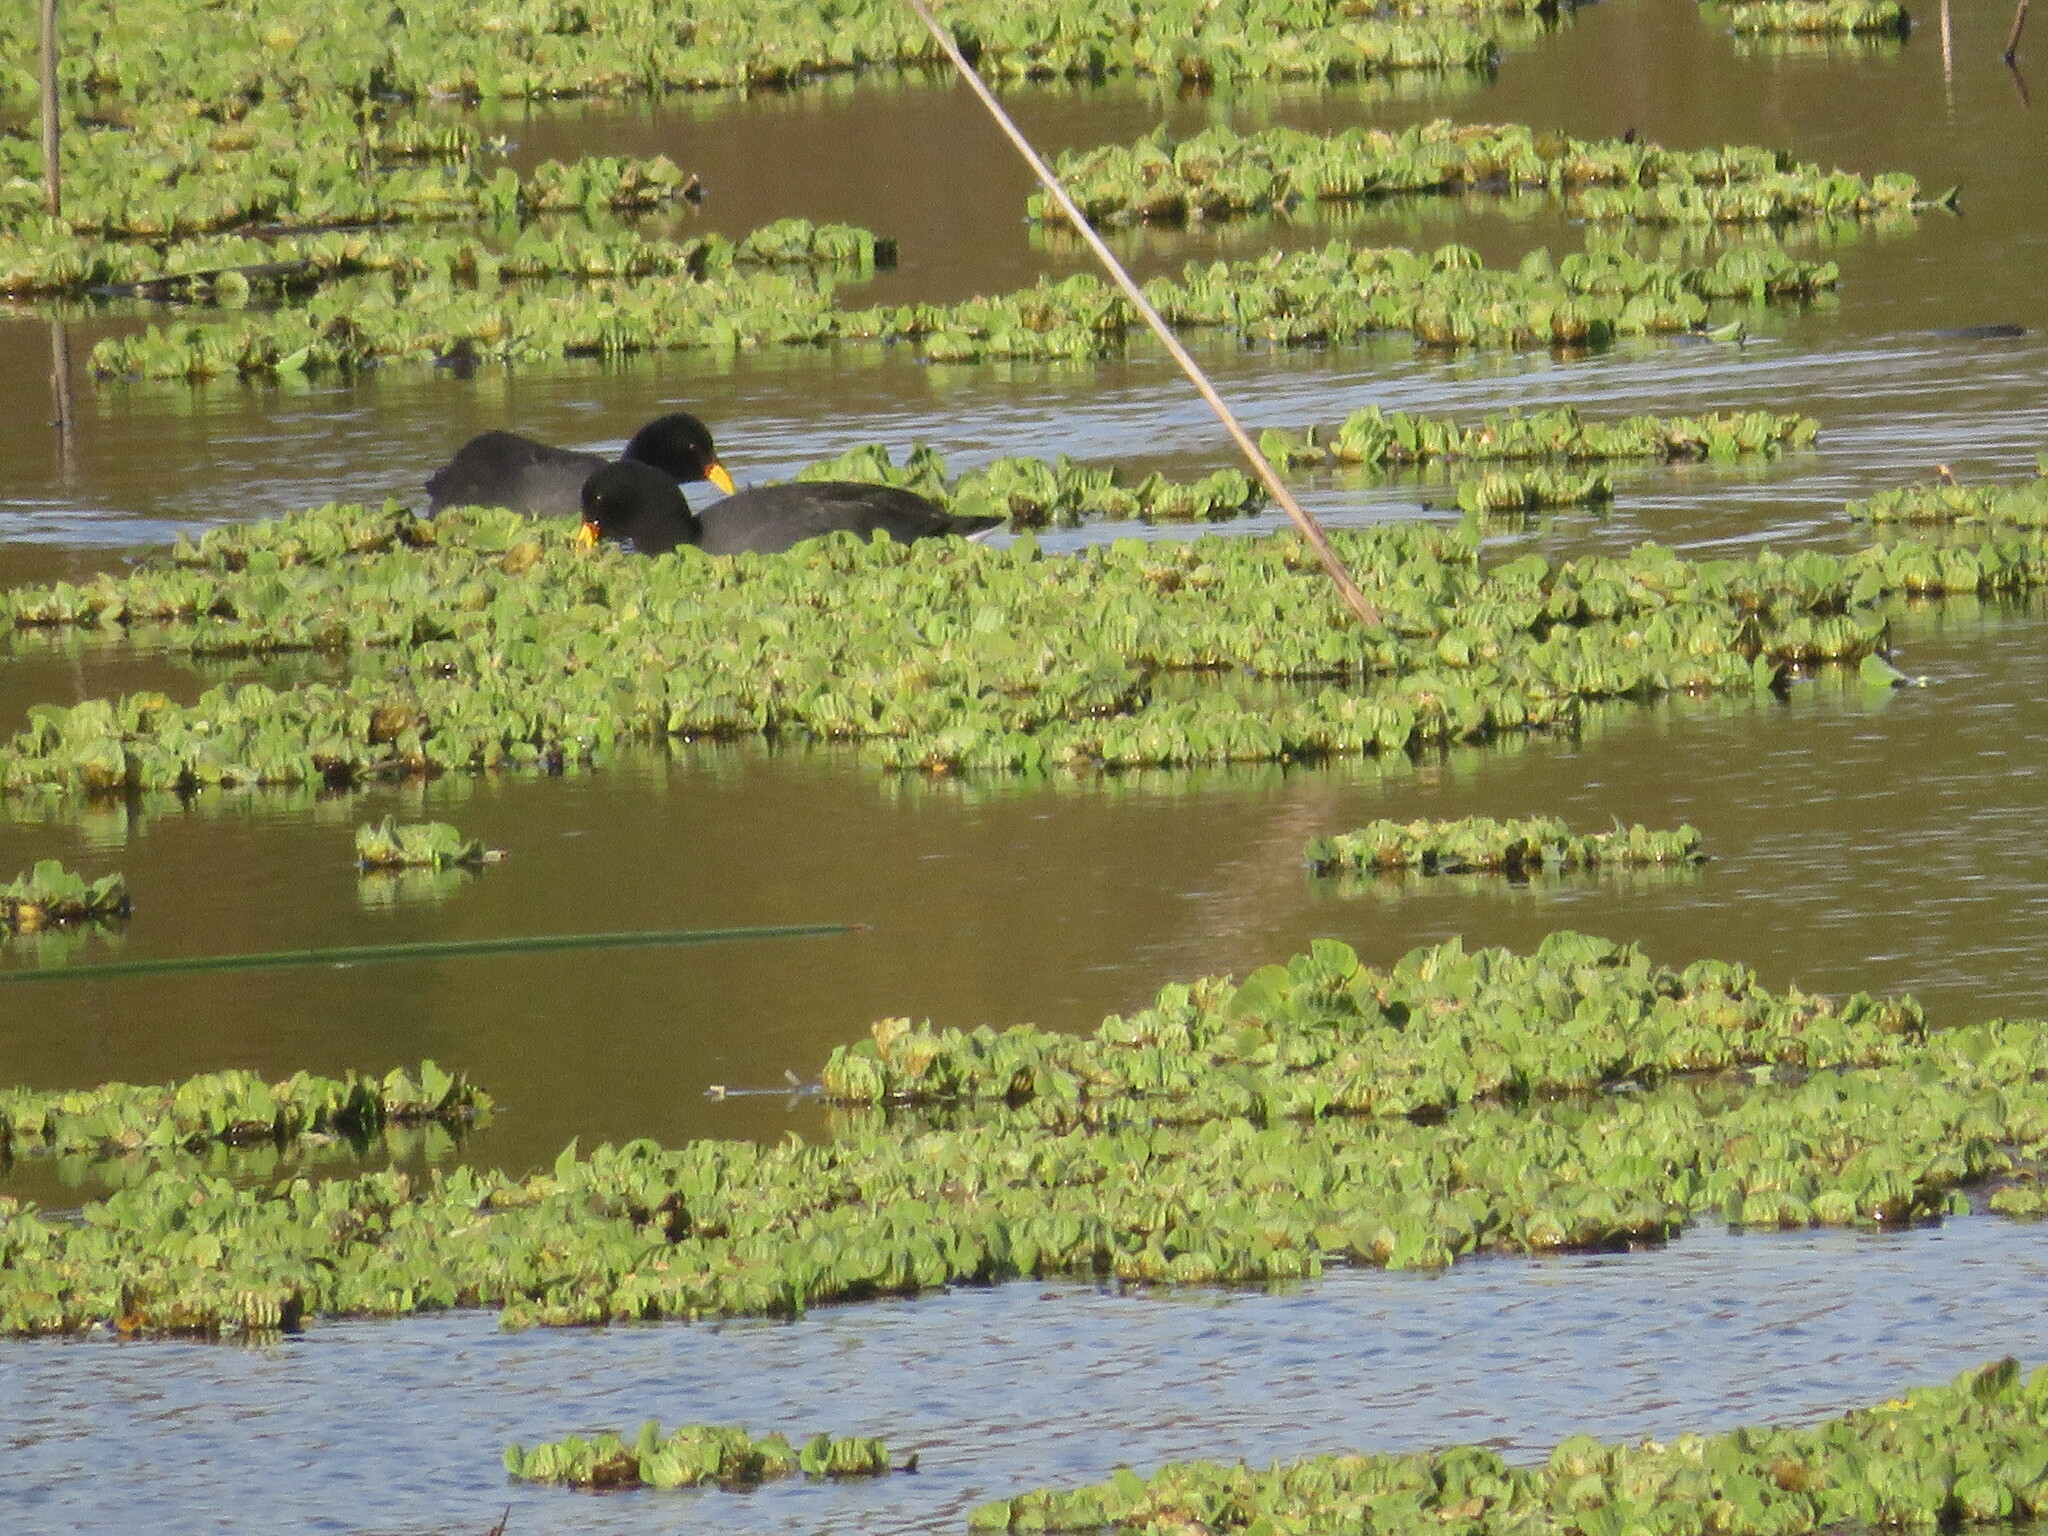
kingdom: Animalia
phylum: Chordata
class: Aves
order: Gruiformes
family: Rallidae
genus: Fulica
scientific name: Fulica rufifrons
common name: Red-fronted coot
